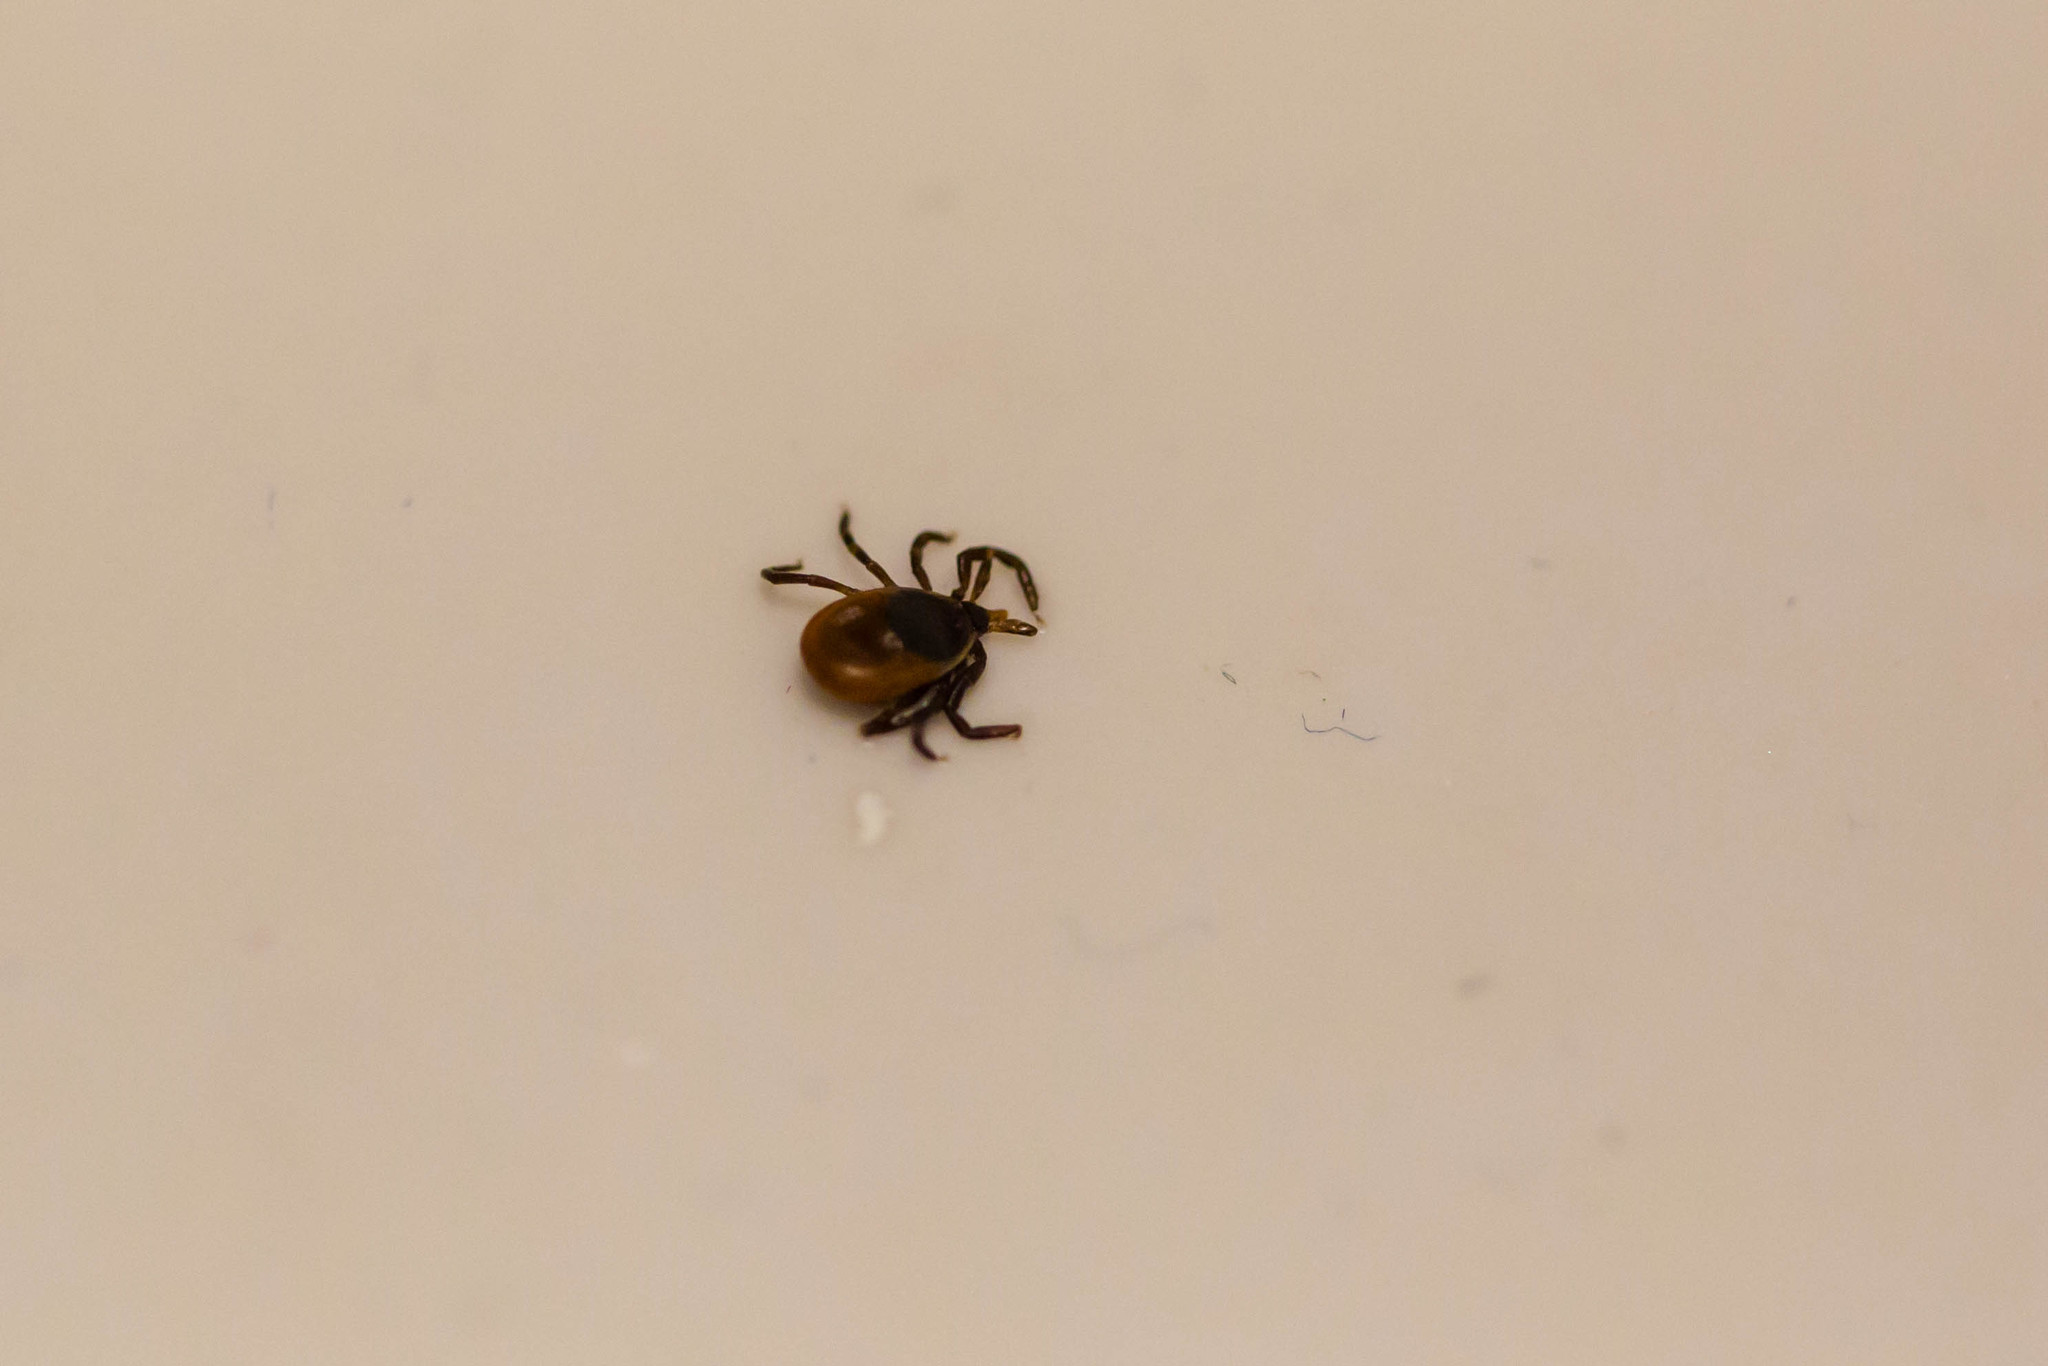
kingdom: Animalia
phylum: Arthropoda
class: Arachnida
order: Ixodida
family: Ixodidae
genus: Ixodes
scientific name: Ixodes scapularis
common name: Black legged tick
